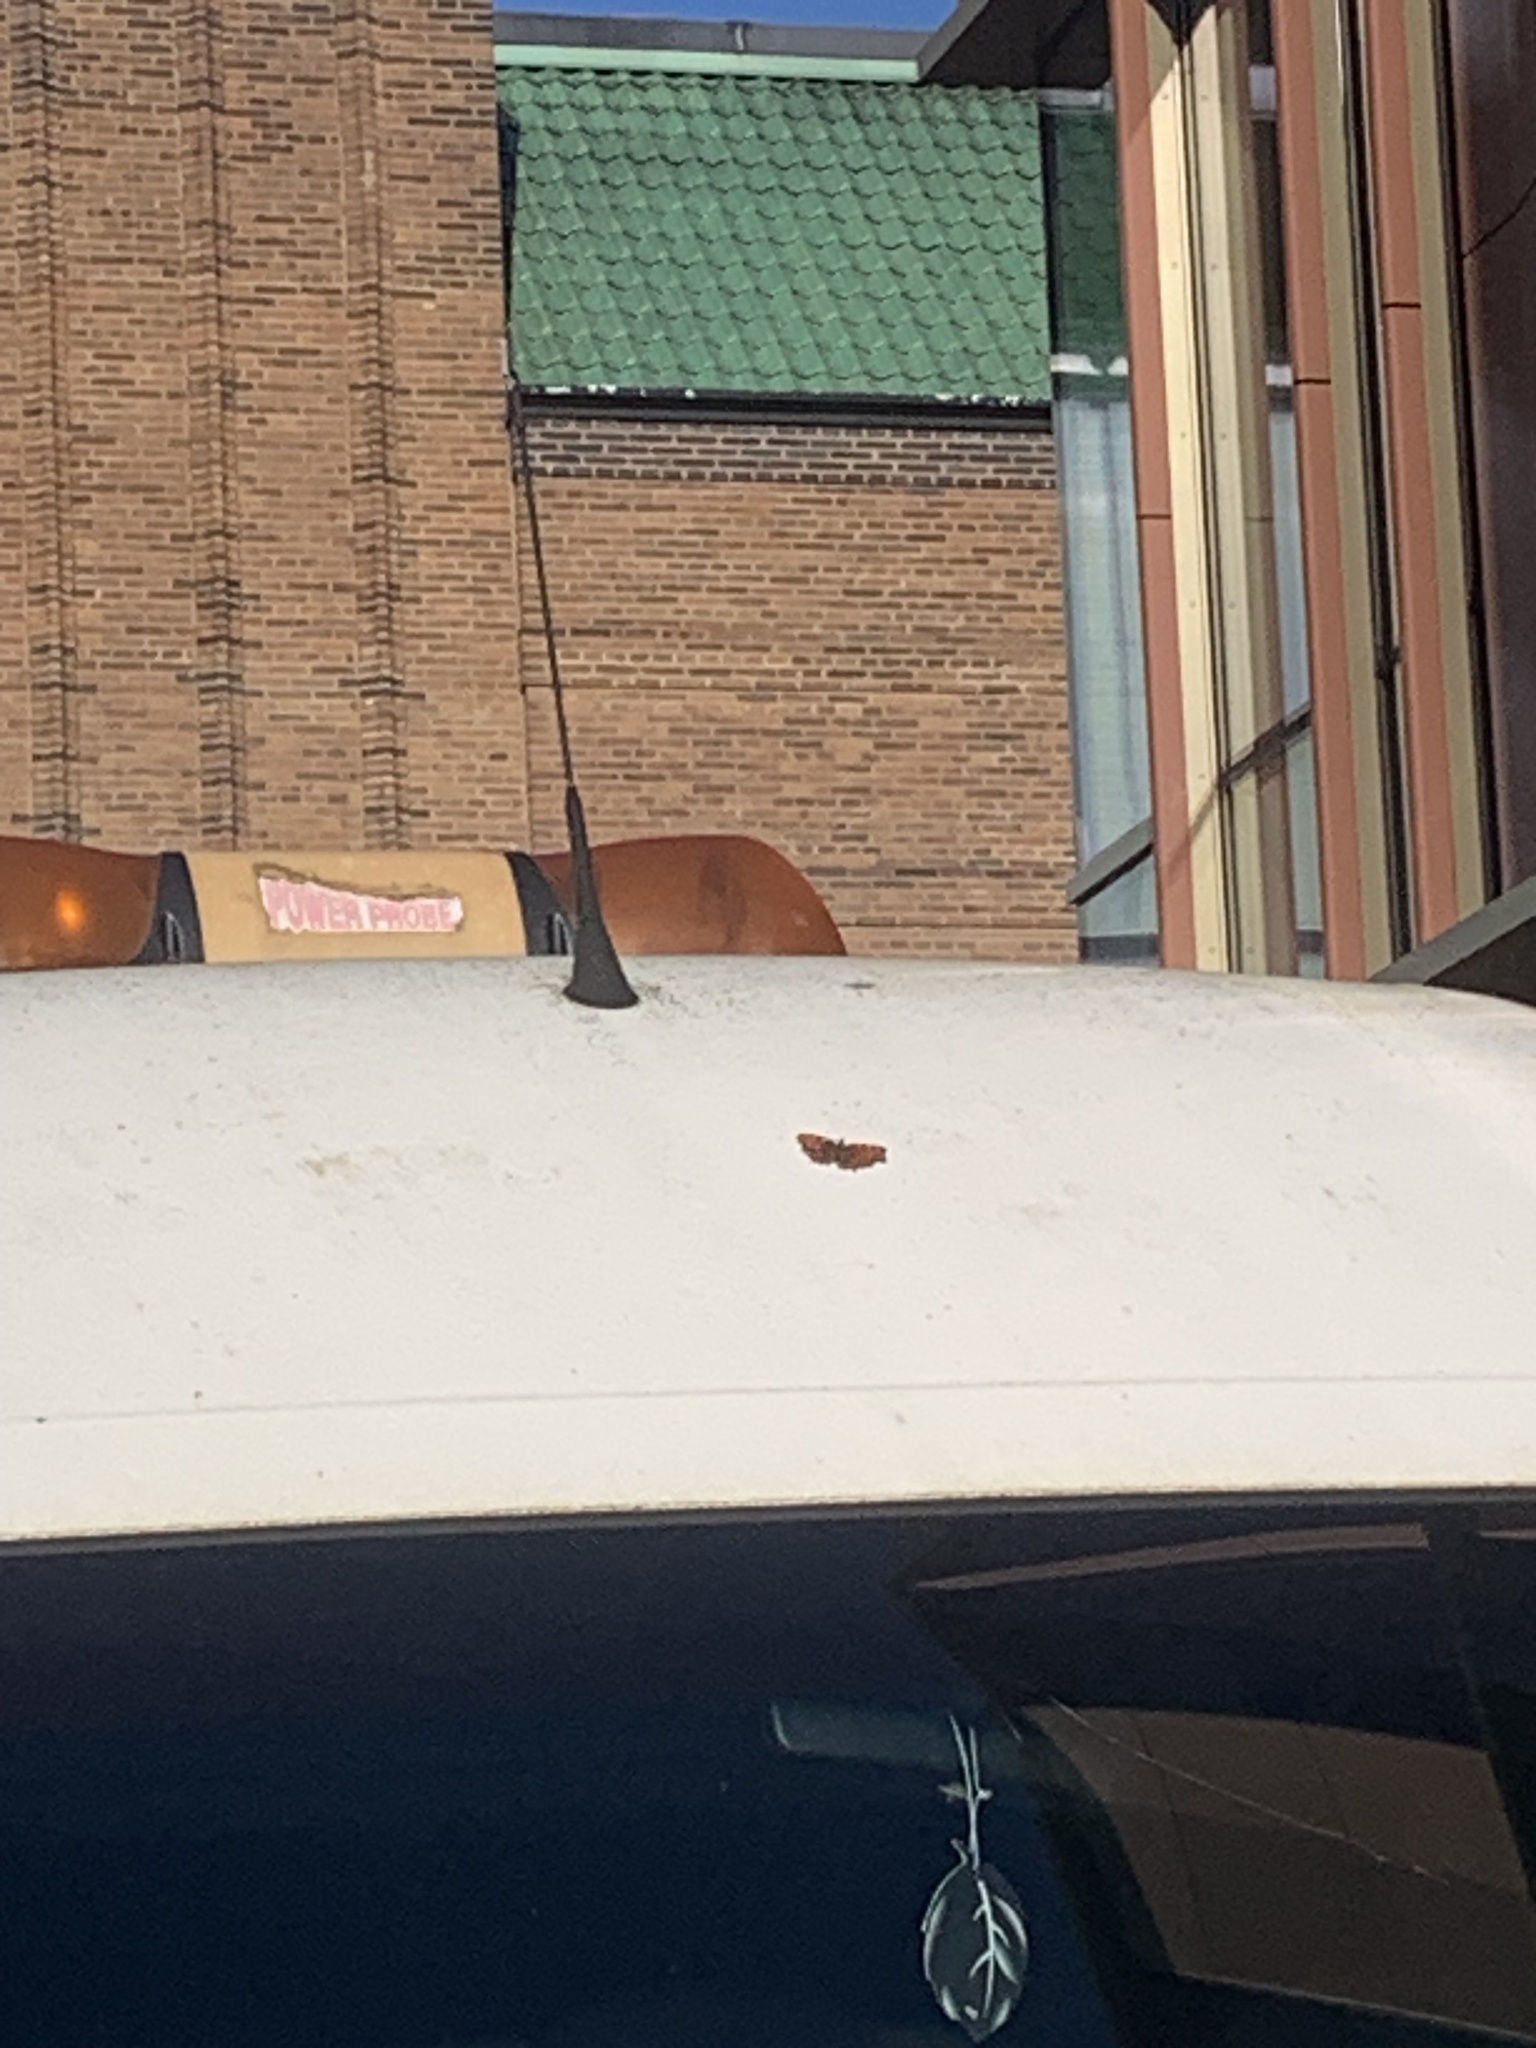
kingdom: Animalia
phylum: Arthropoda
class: Insecta
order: Lepidoptera
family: Nymphalidae
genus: Polygonia
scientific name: Polygonia c-album
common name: Comma
